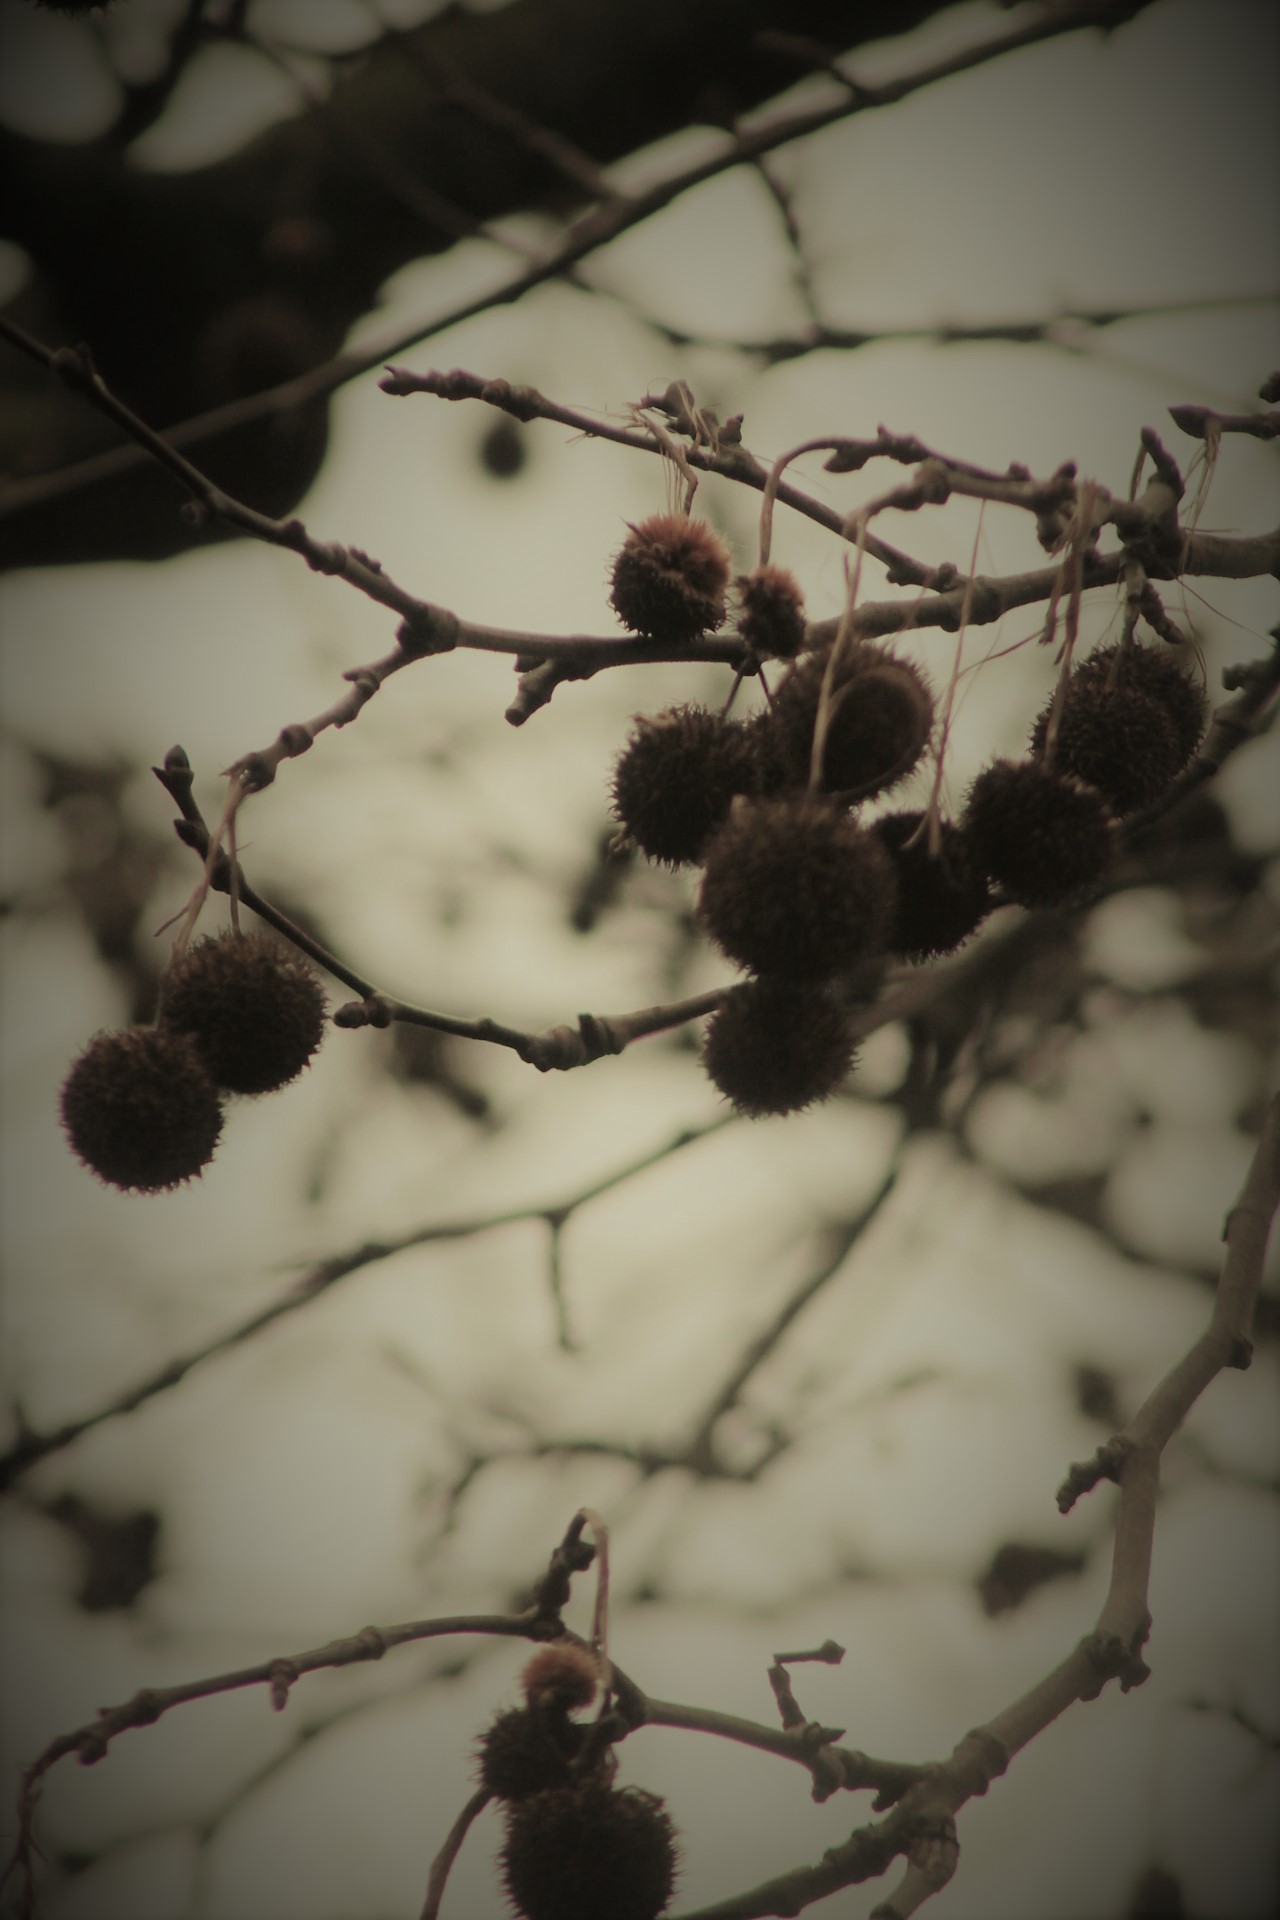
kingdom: Plantae
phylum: Tracheophyta
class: Magnoliopsida
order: Proteales
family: Platanaceae
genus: Platanus
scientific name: Platanus hispanica
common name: London plane
